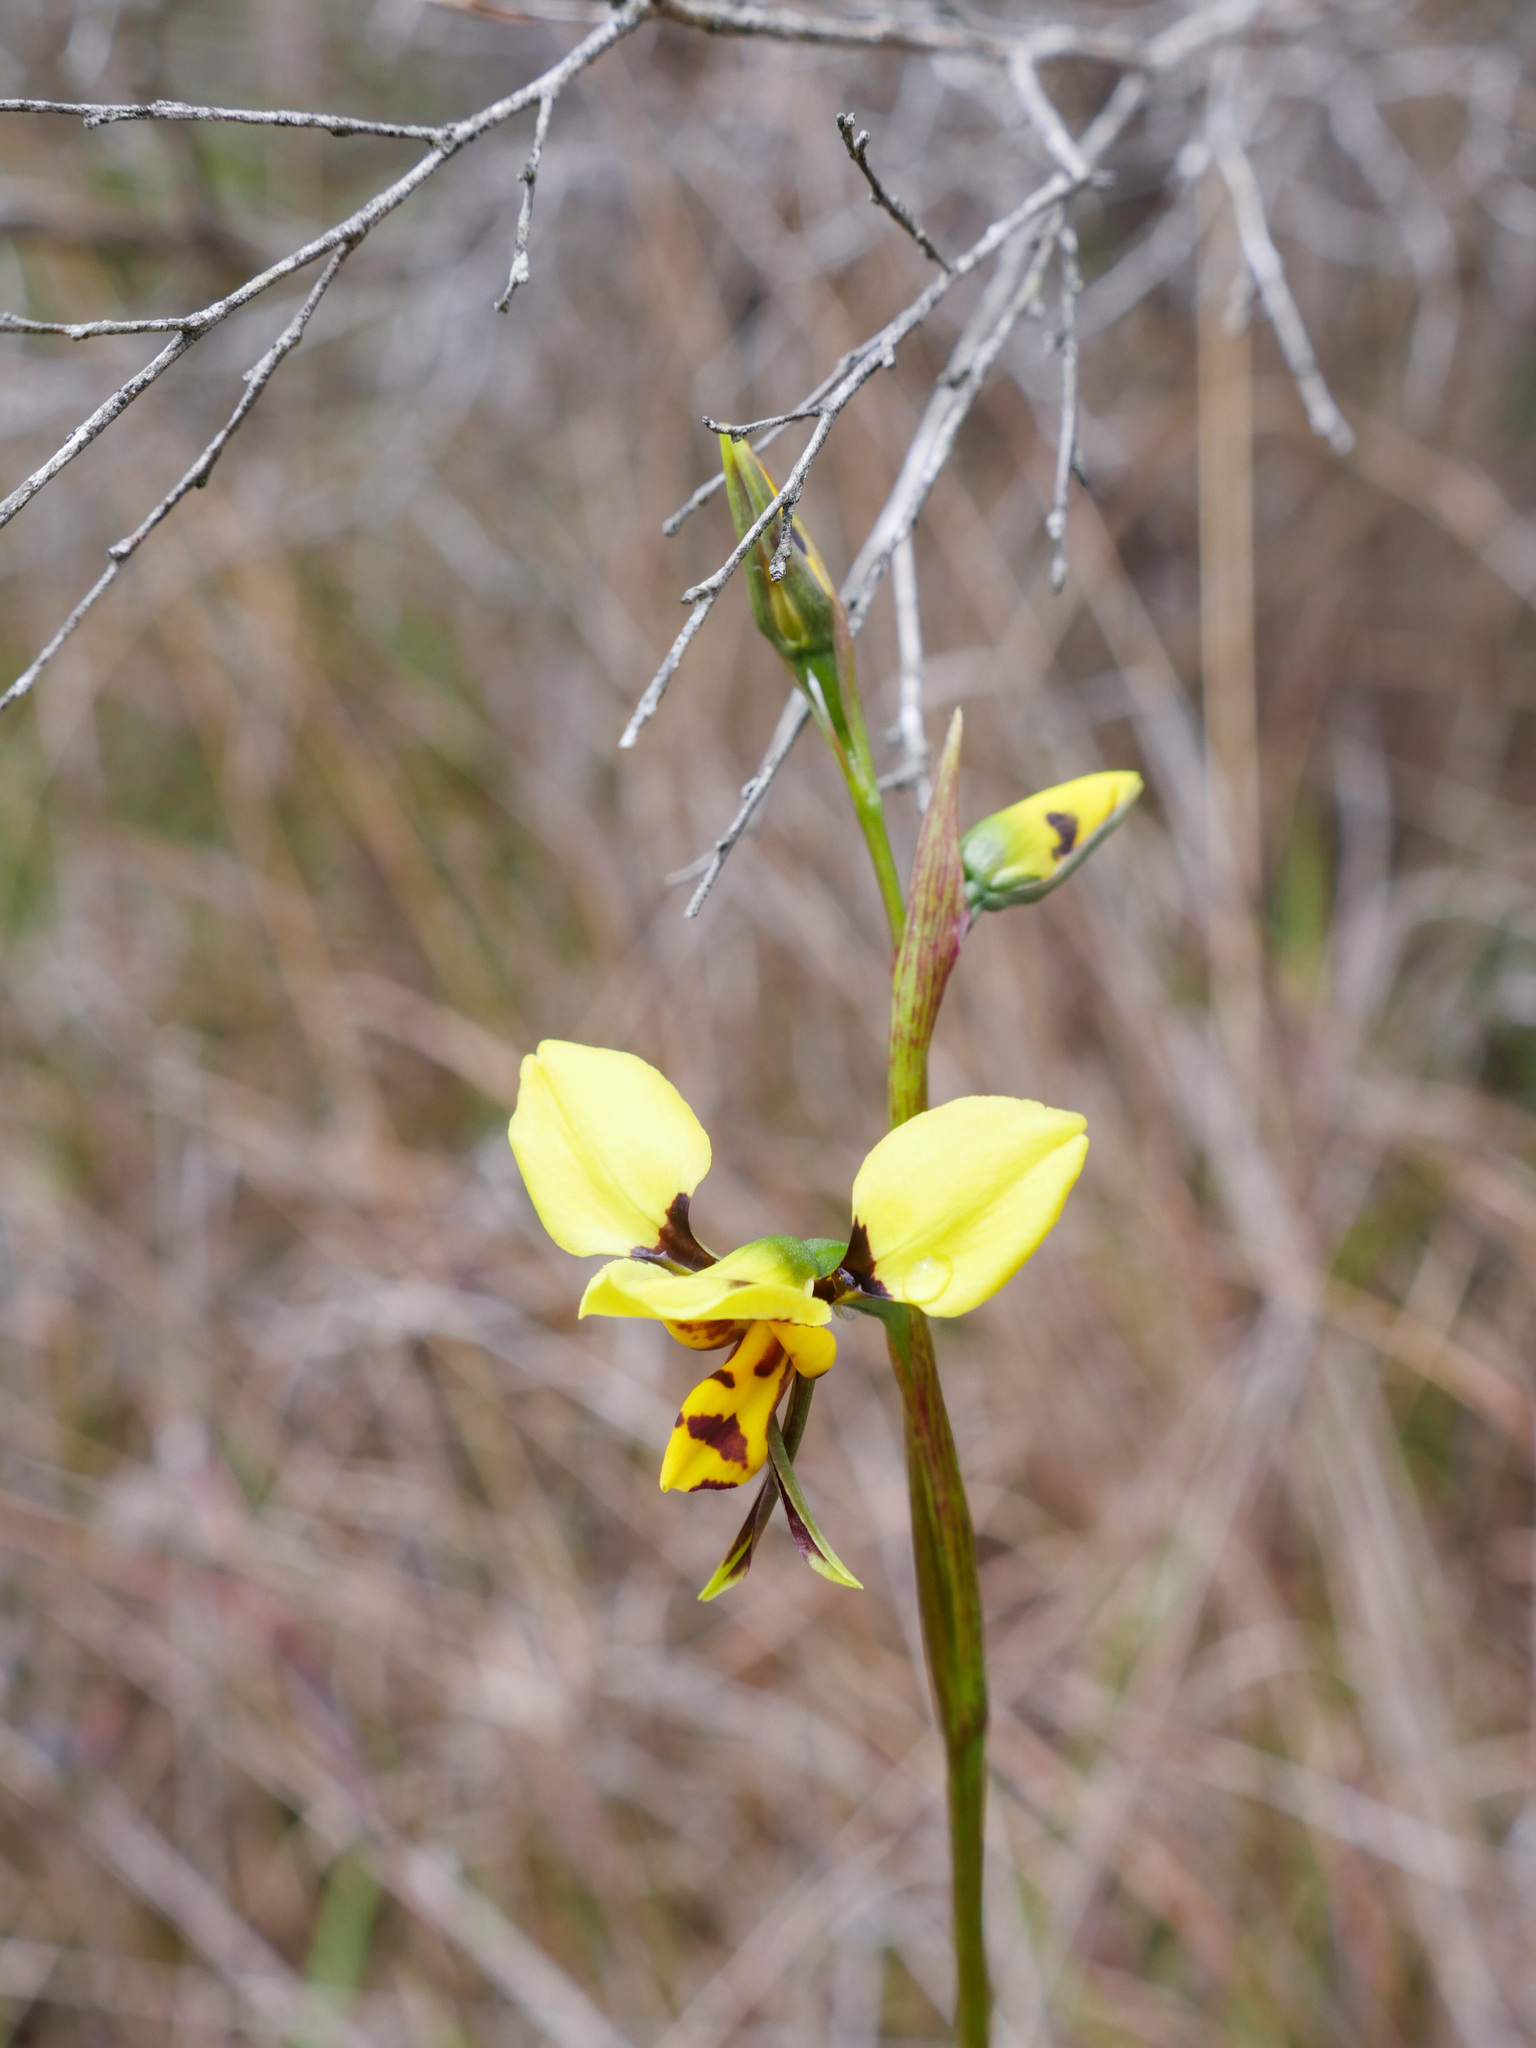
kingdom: Plantae
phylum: Tracheophyta
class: Liliopsida
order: Asparagales
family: Orchidaceae
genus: Diuris
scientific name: Diuris sulphurea
